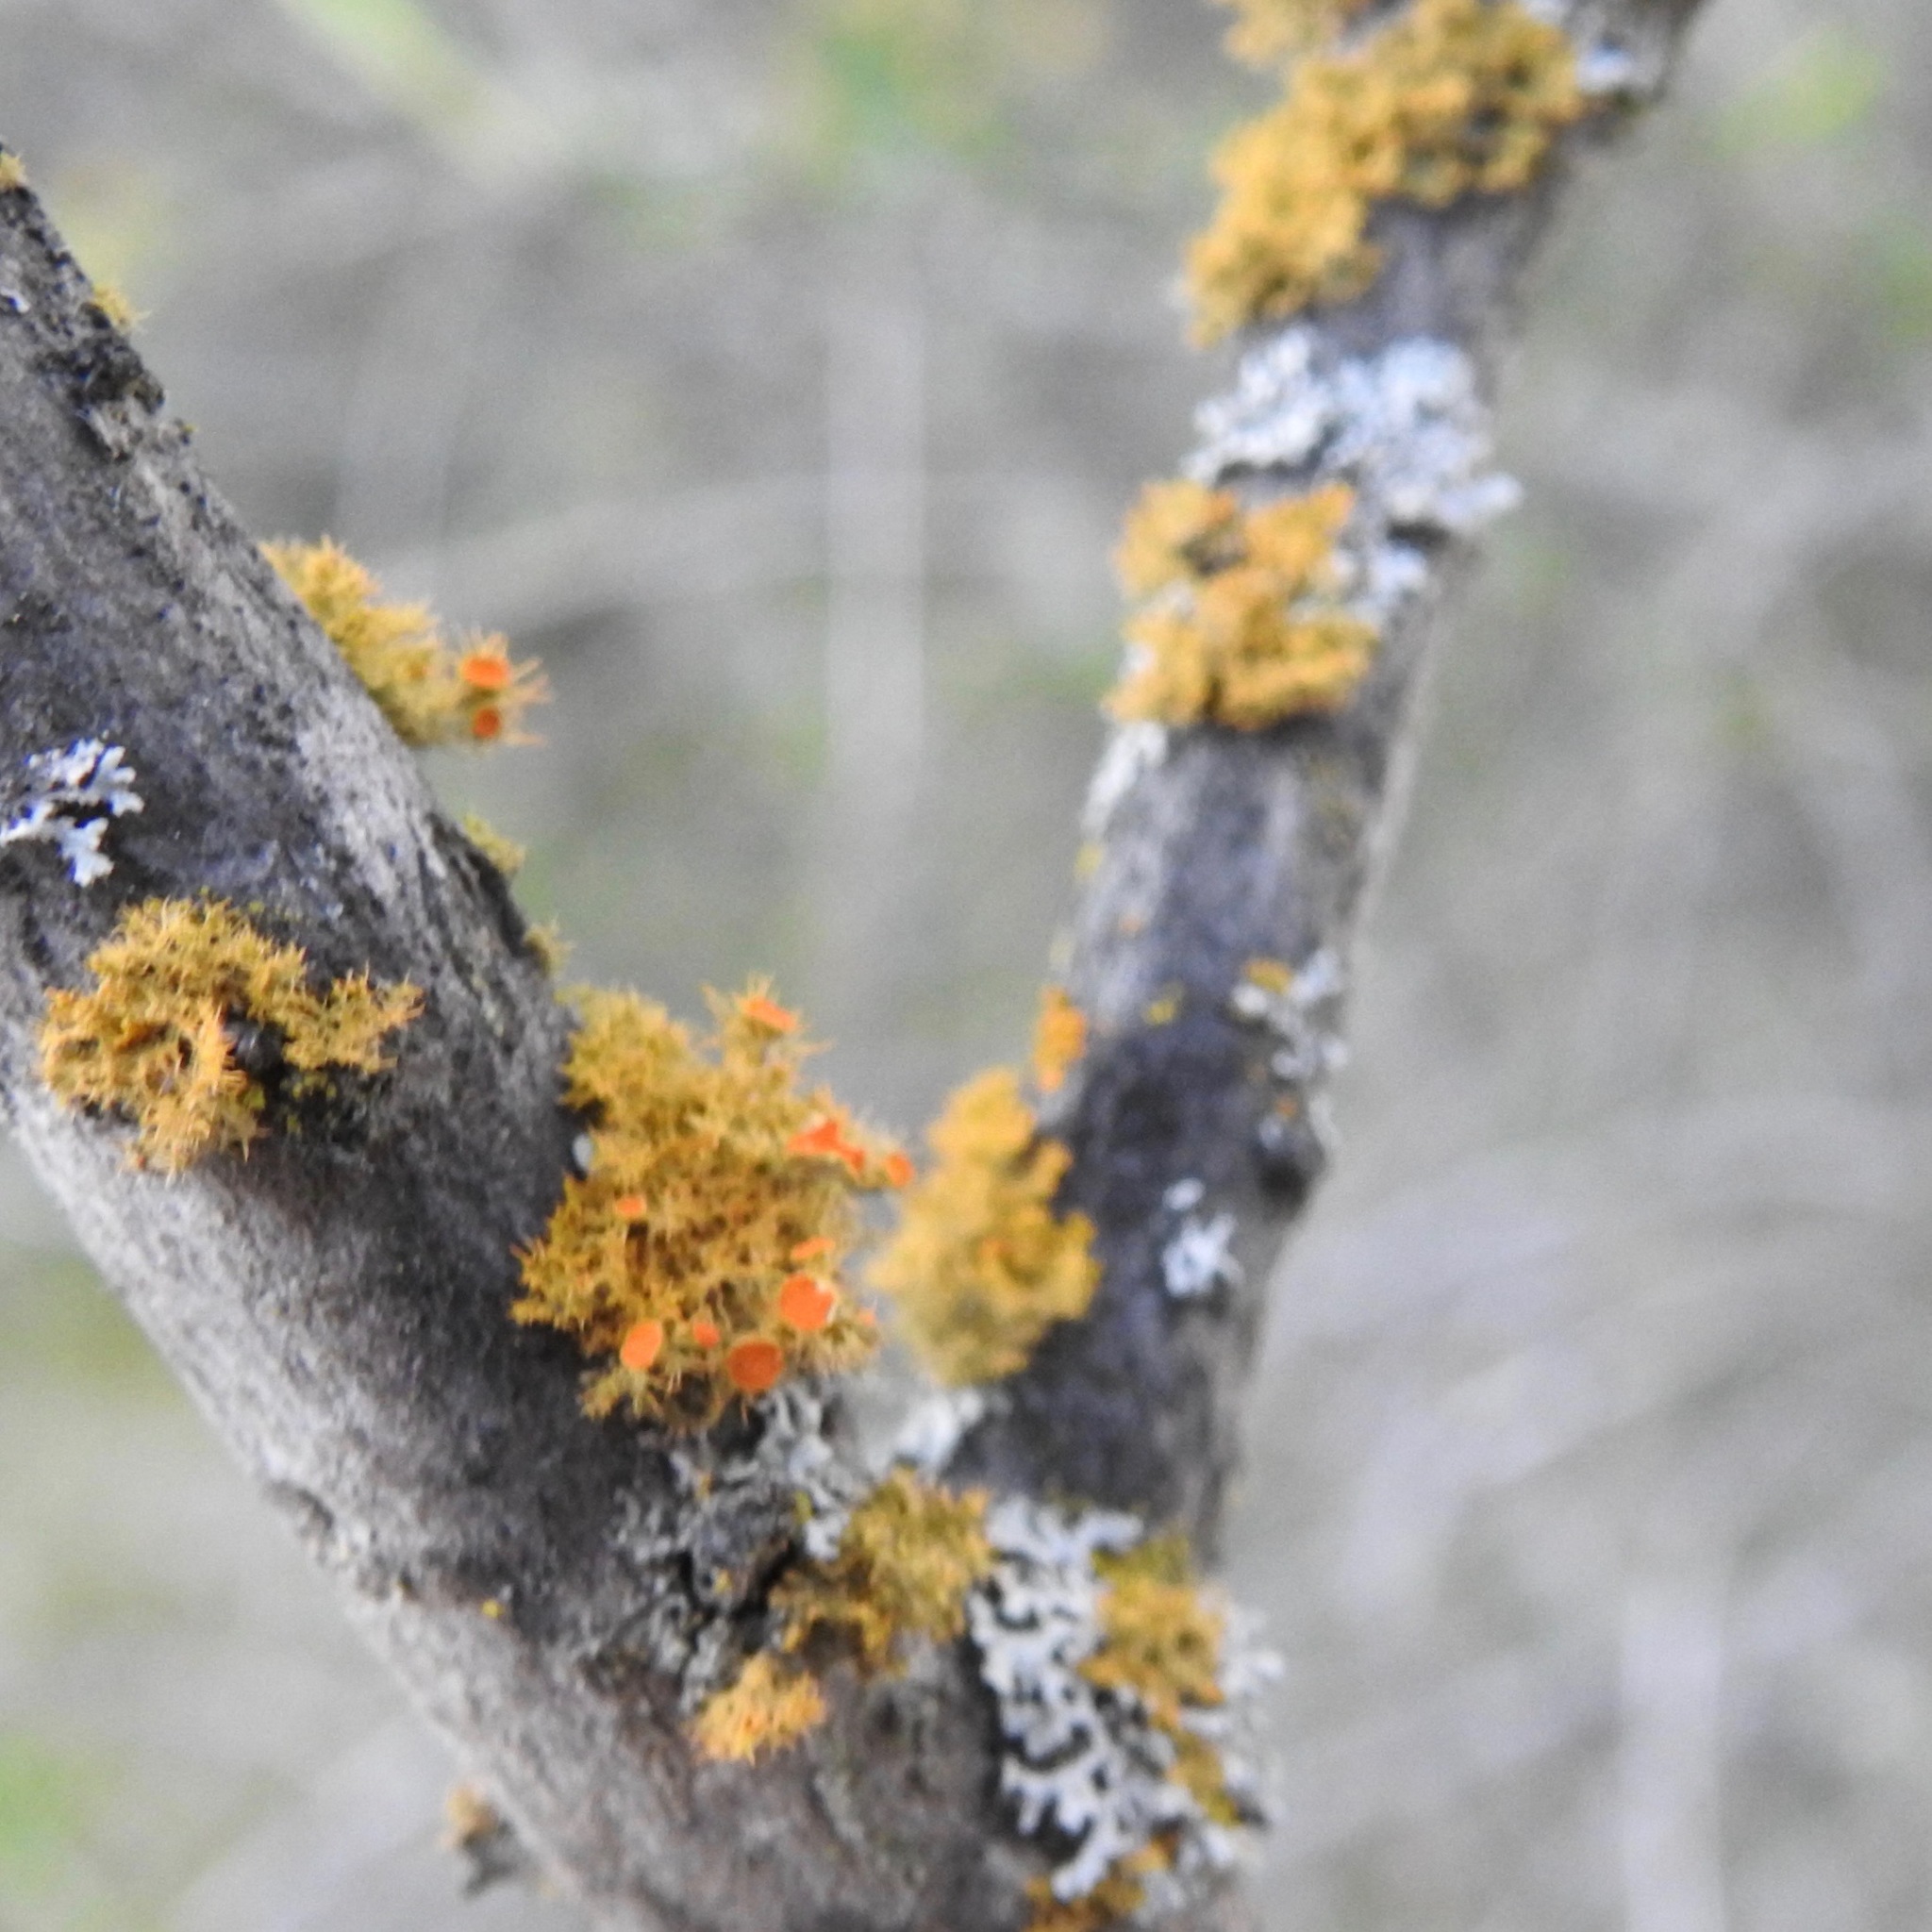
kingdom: Fungi
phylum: Ascomycota
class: Lecanoromycetes
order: Teloschistales
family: Teloschistaceae
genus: Niorma
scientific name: Niorma chrysophthalma
